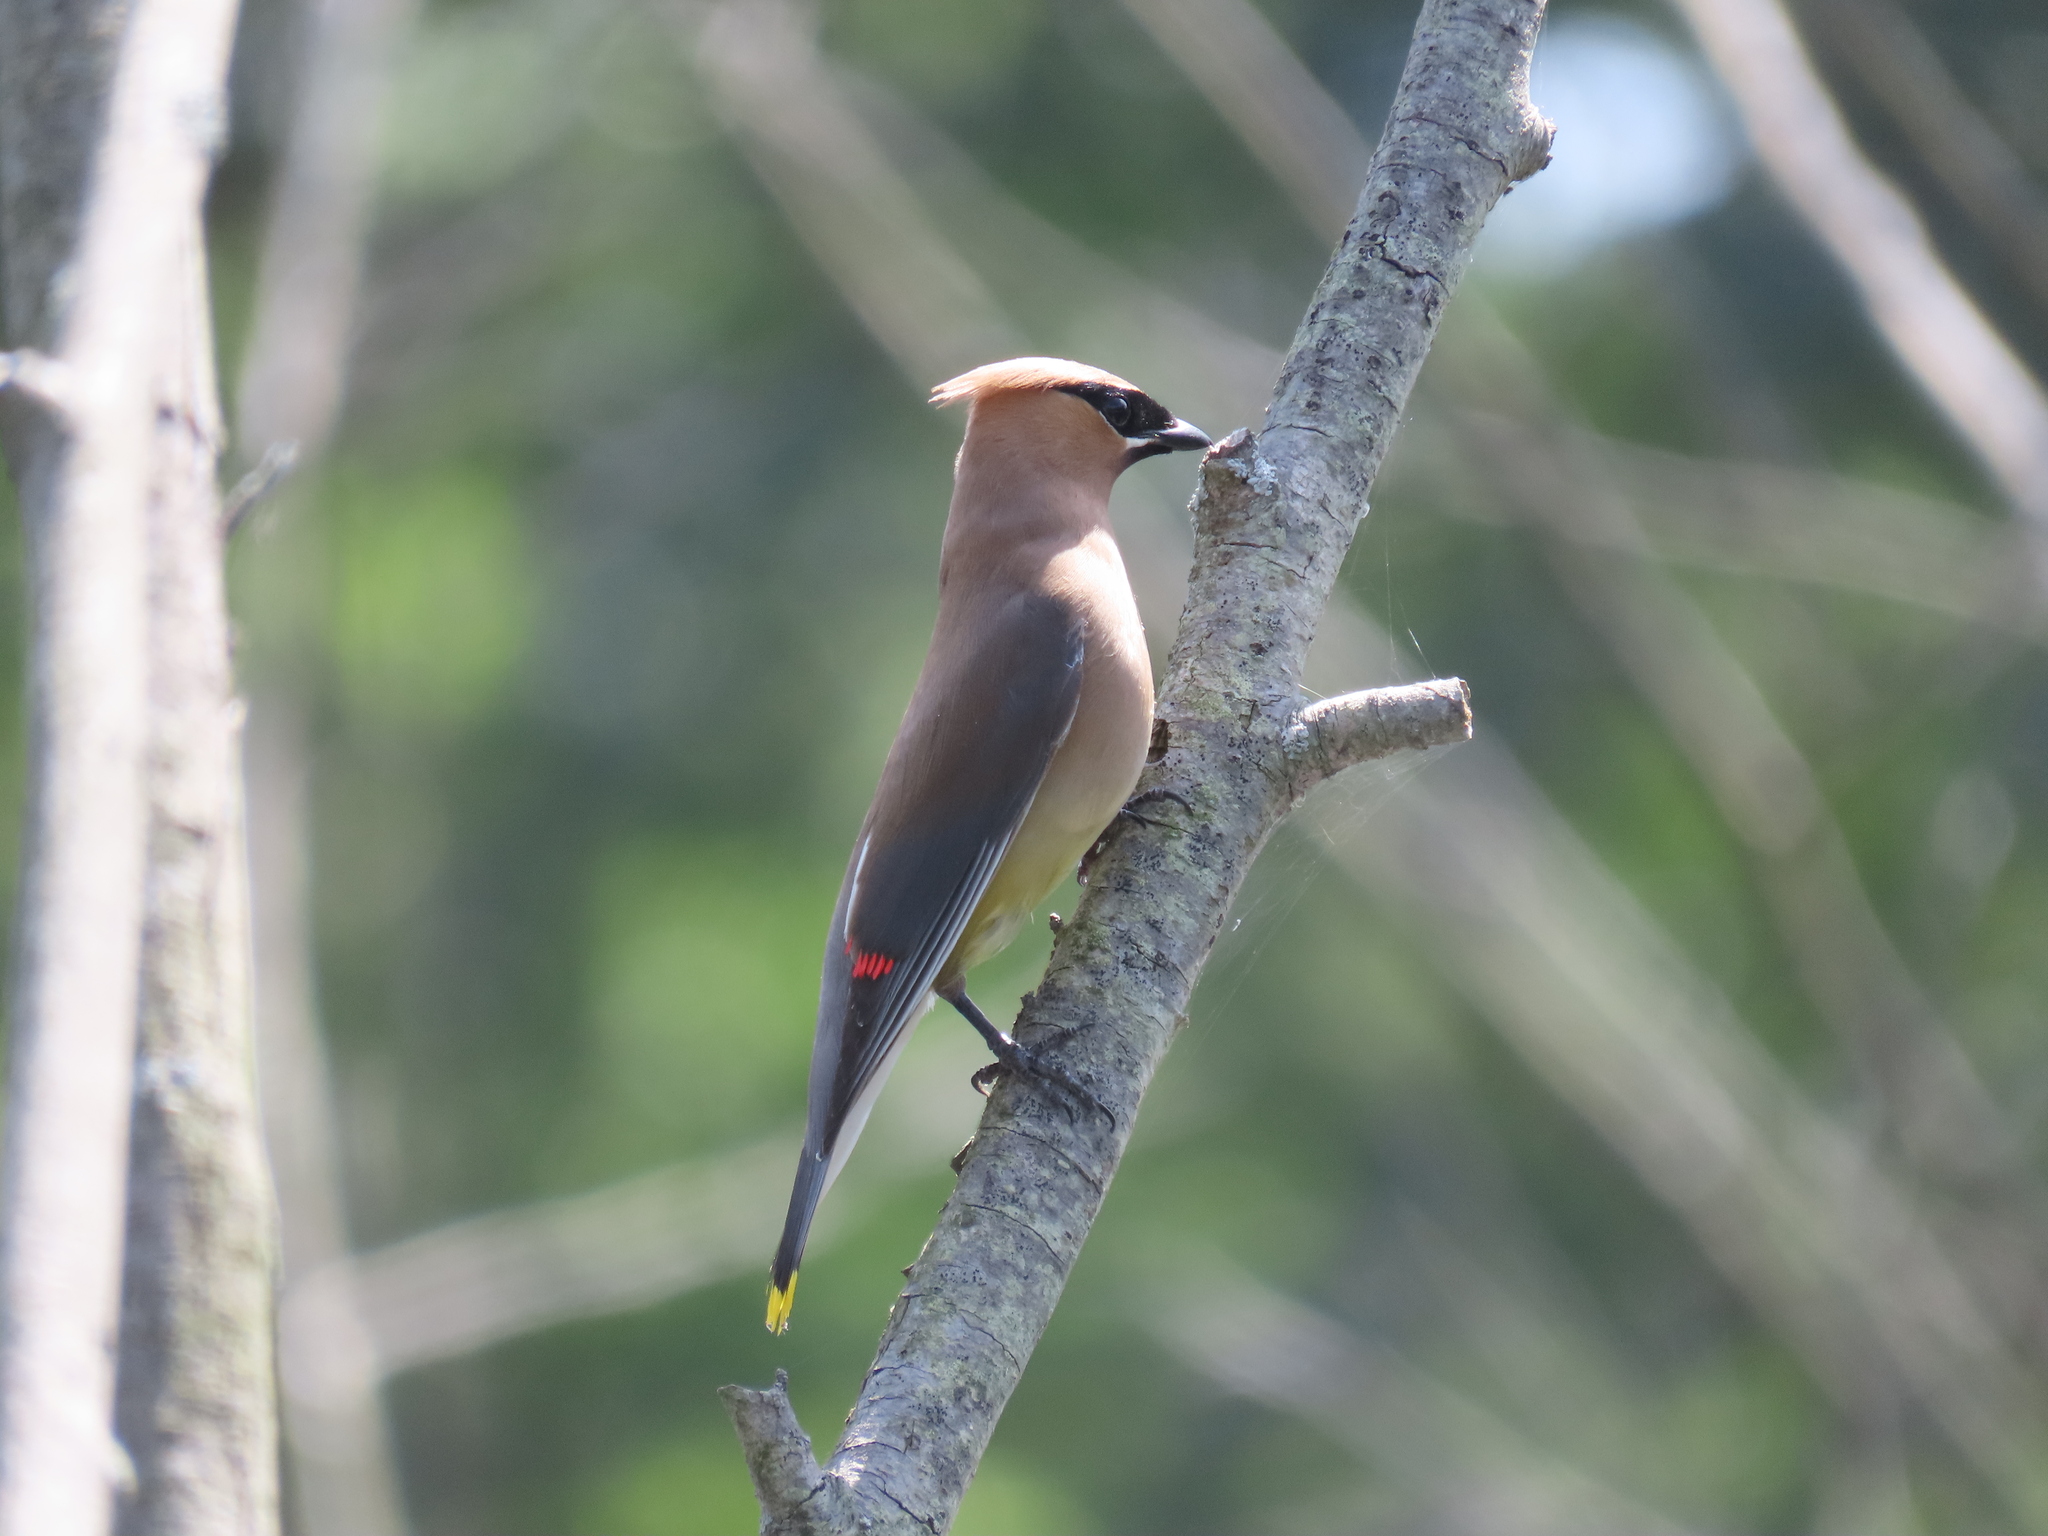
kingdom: Animalia
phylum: Chordata
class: Aves
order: Passeriformes
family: Bombycillidae
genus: Bombycilla
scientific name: Bombycilla cedrorum
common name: Cedar waxwing
